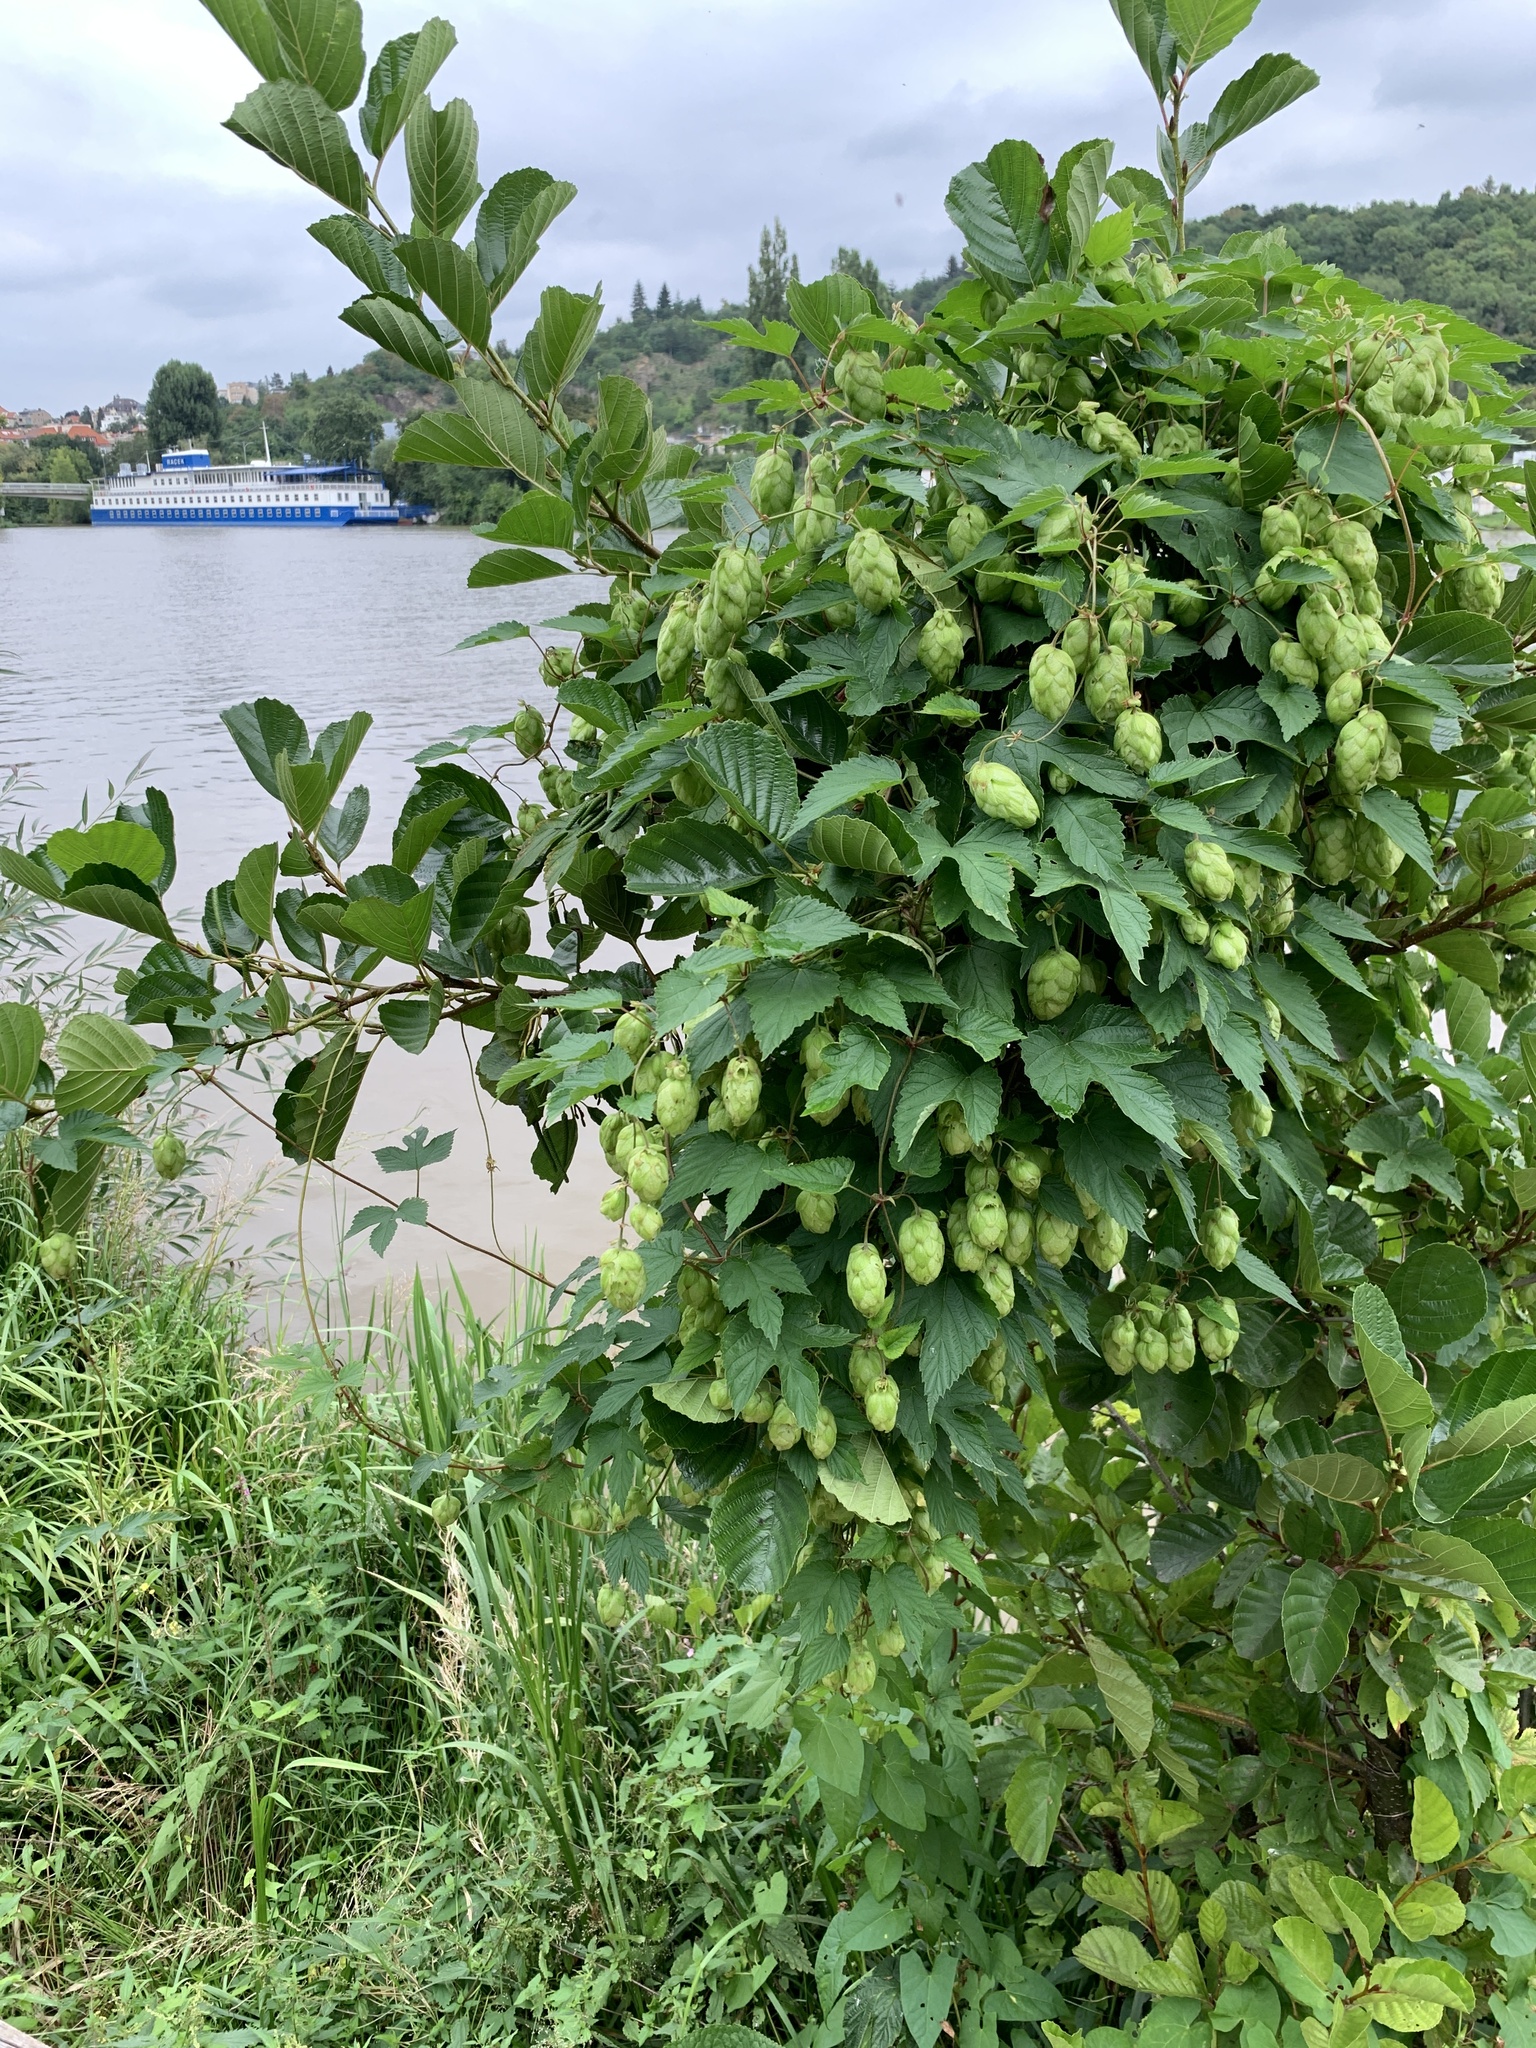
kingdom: Plantae
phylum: Tracheophyta
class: Magnoliopsida
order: Rosales
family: Cannabaceae
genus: Humulus
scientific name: Humulus lupulus
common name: Hop
